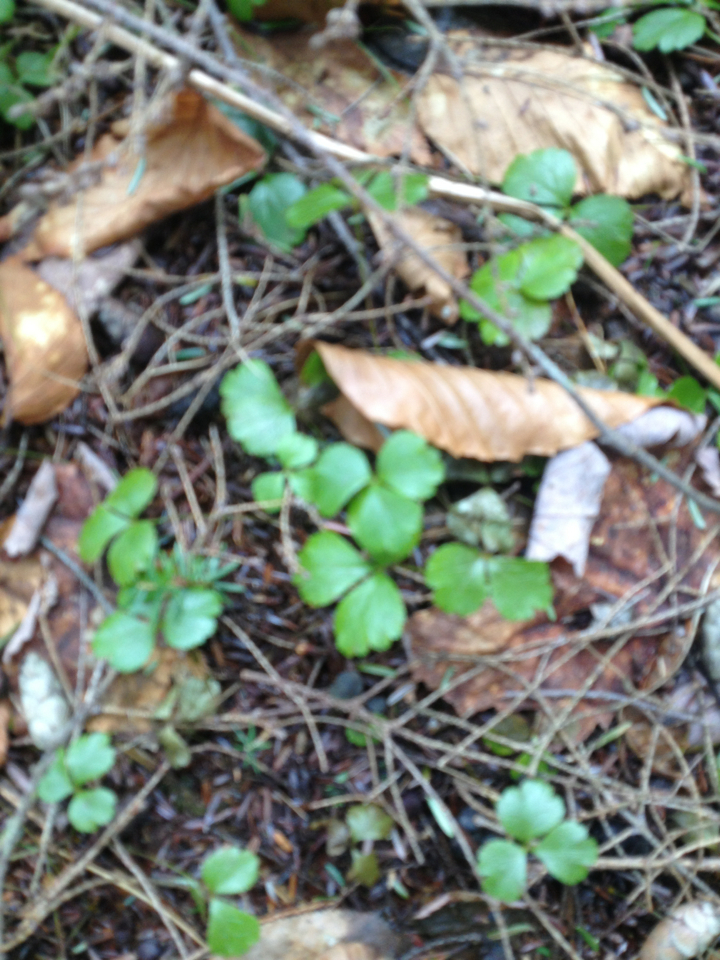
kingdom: Plantae
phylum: Tracheophyta
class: Magnoliopsida
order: Ranunculales
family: Ranunculaceae
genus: Coptis
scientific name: Coptis trifolia
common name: Canker-root
